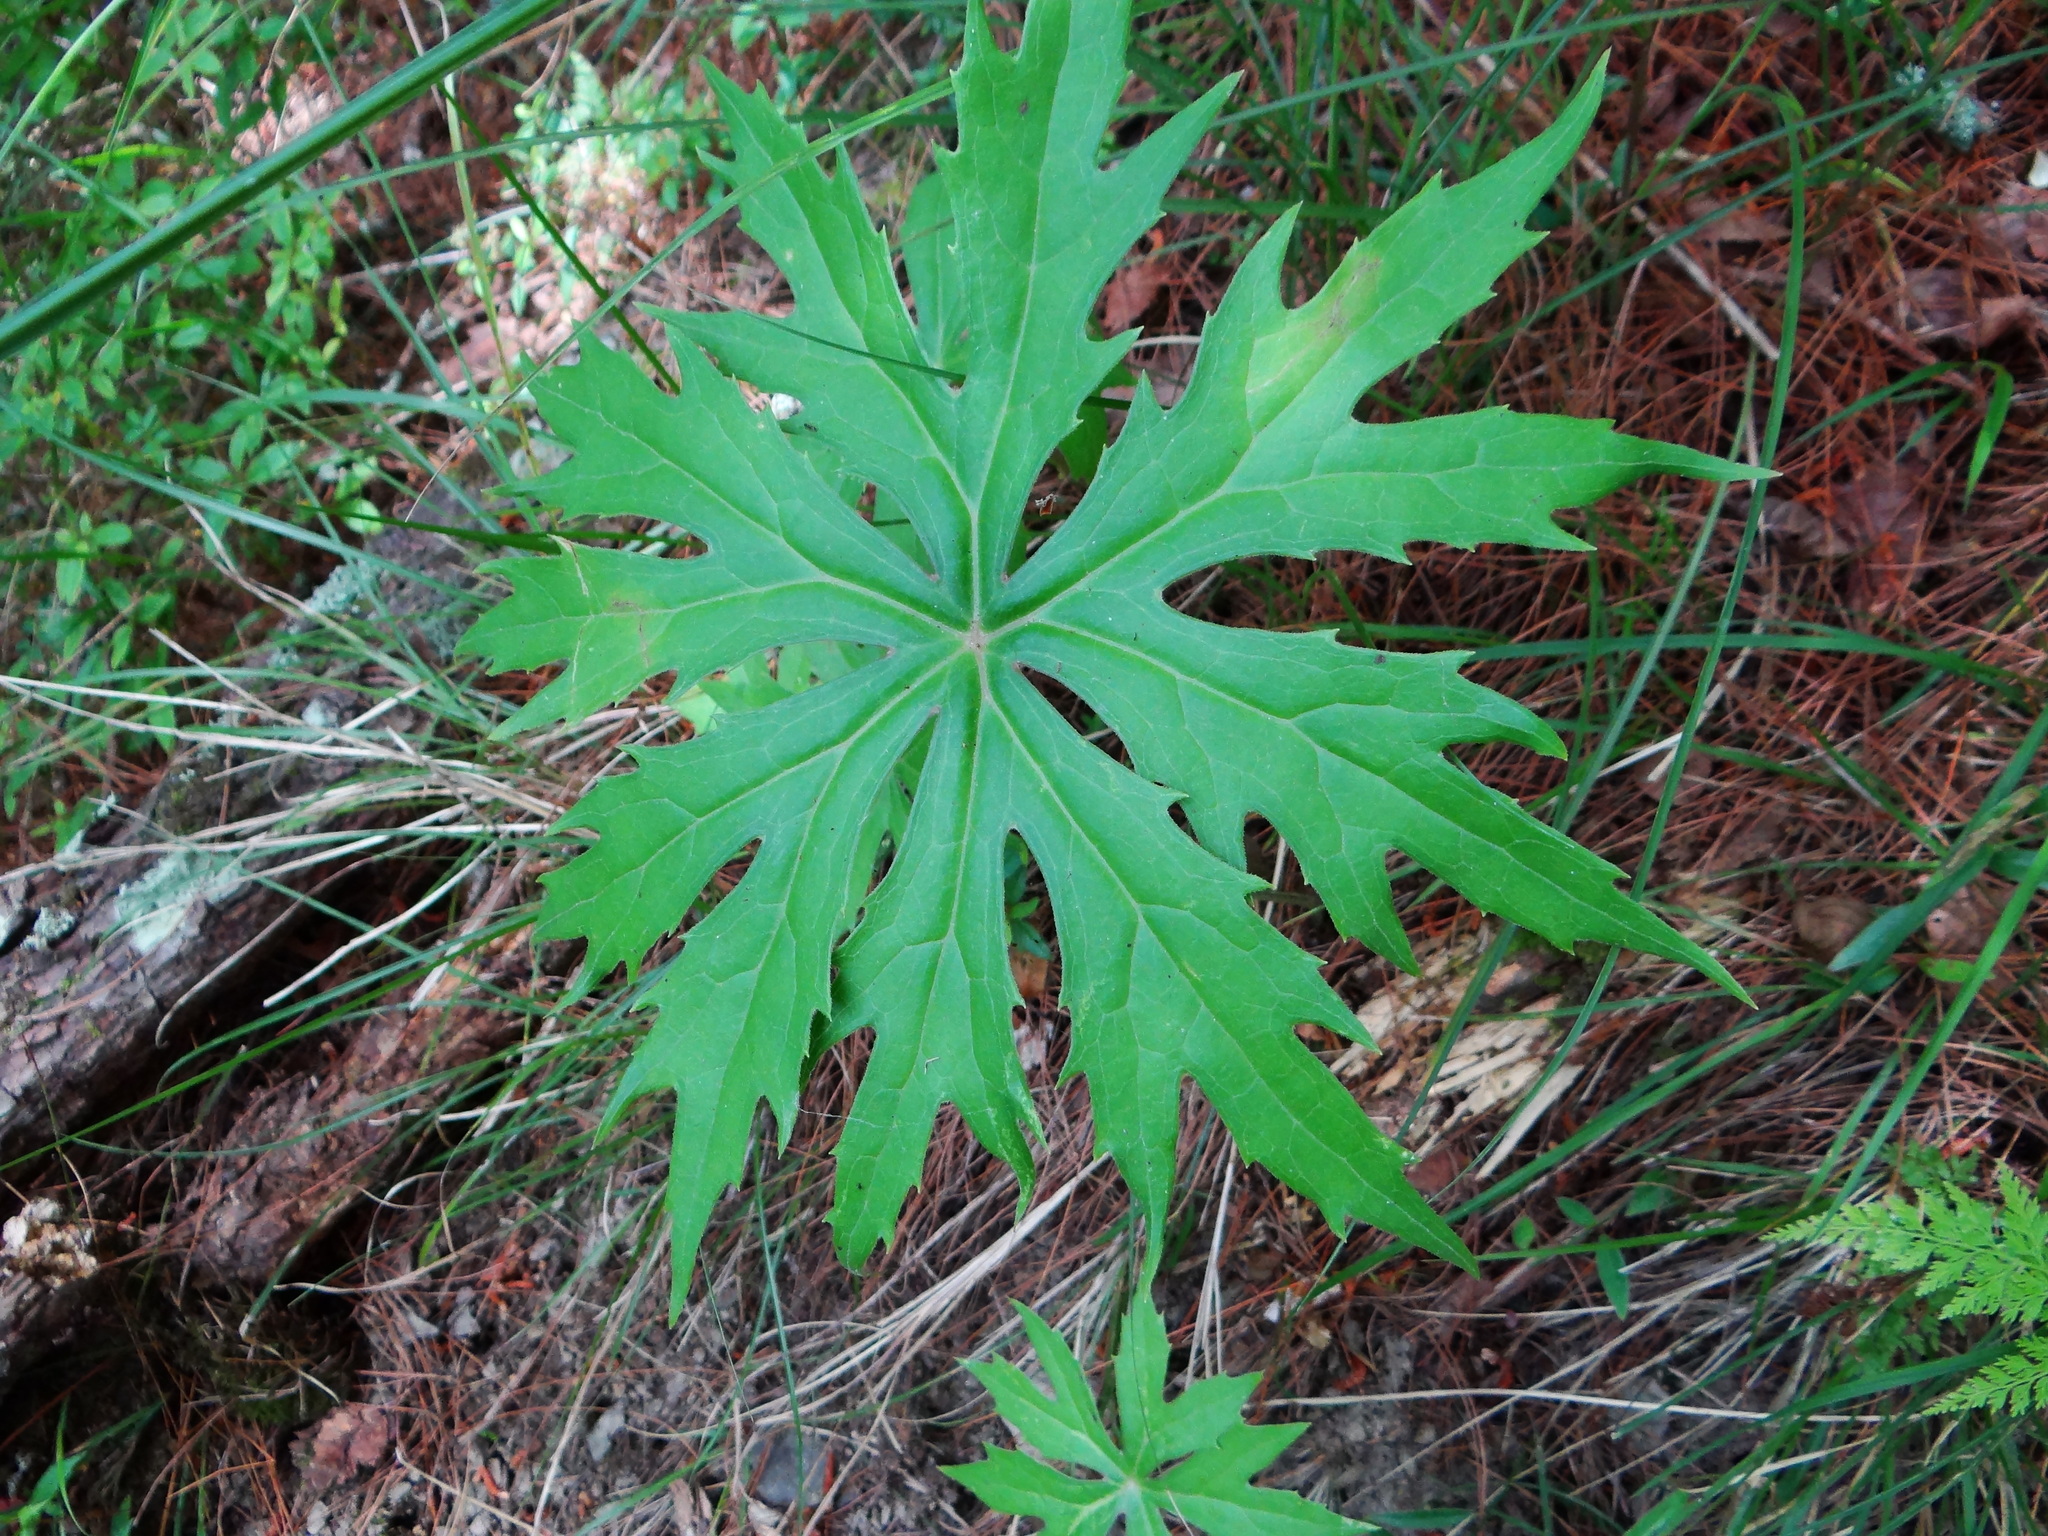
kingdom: Plantae
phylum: Tracheophyta
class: Magnoliopsida
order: Asterales
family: Asteraceae
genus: Syneilesis
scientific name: Syneilesis subglabrata
